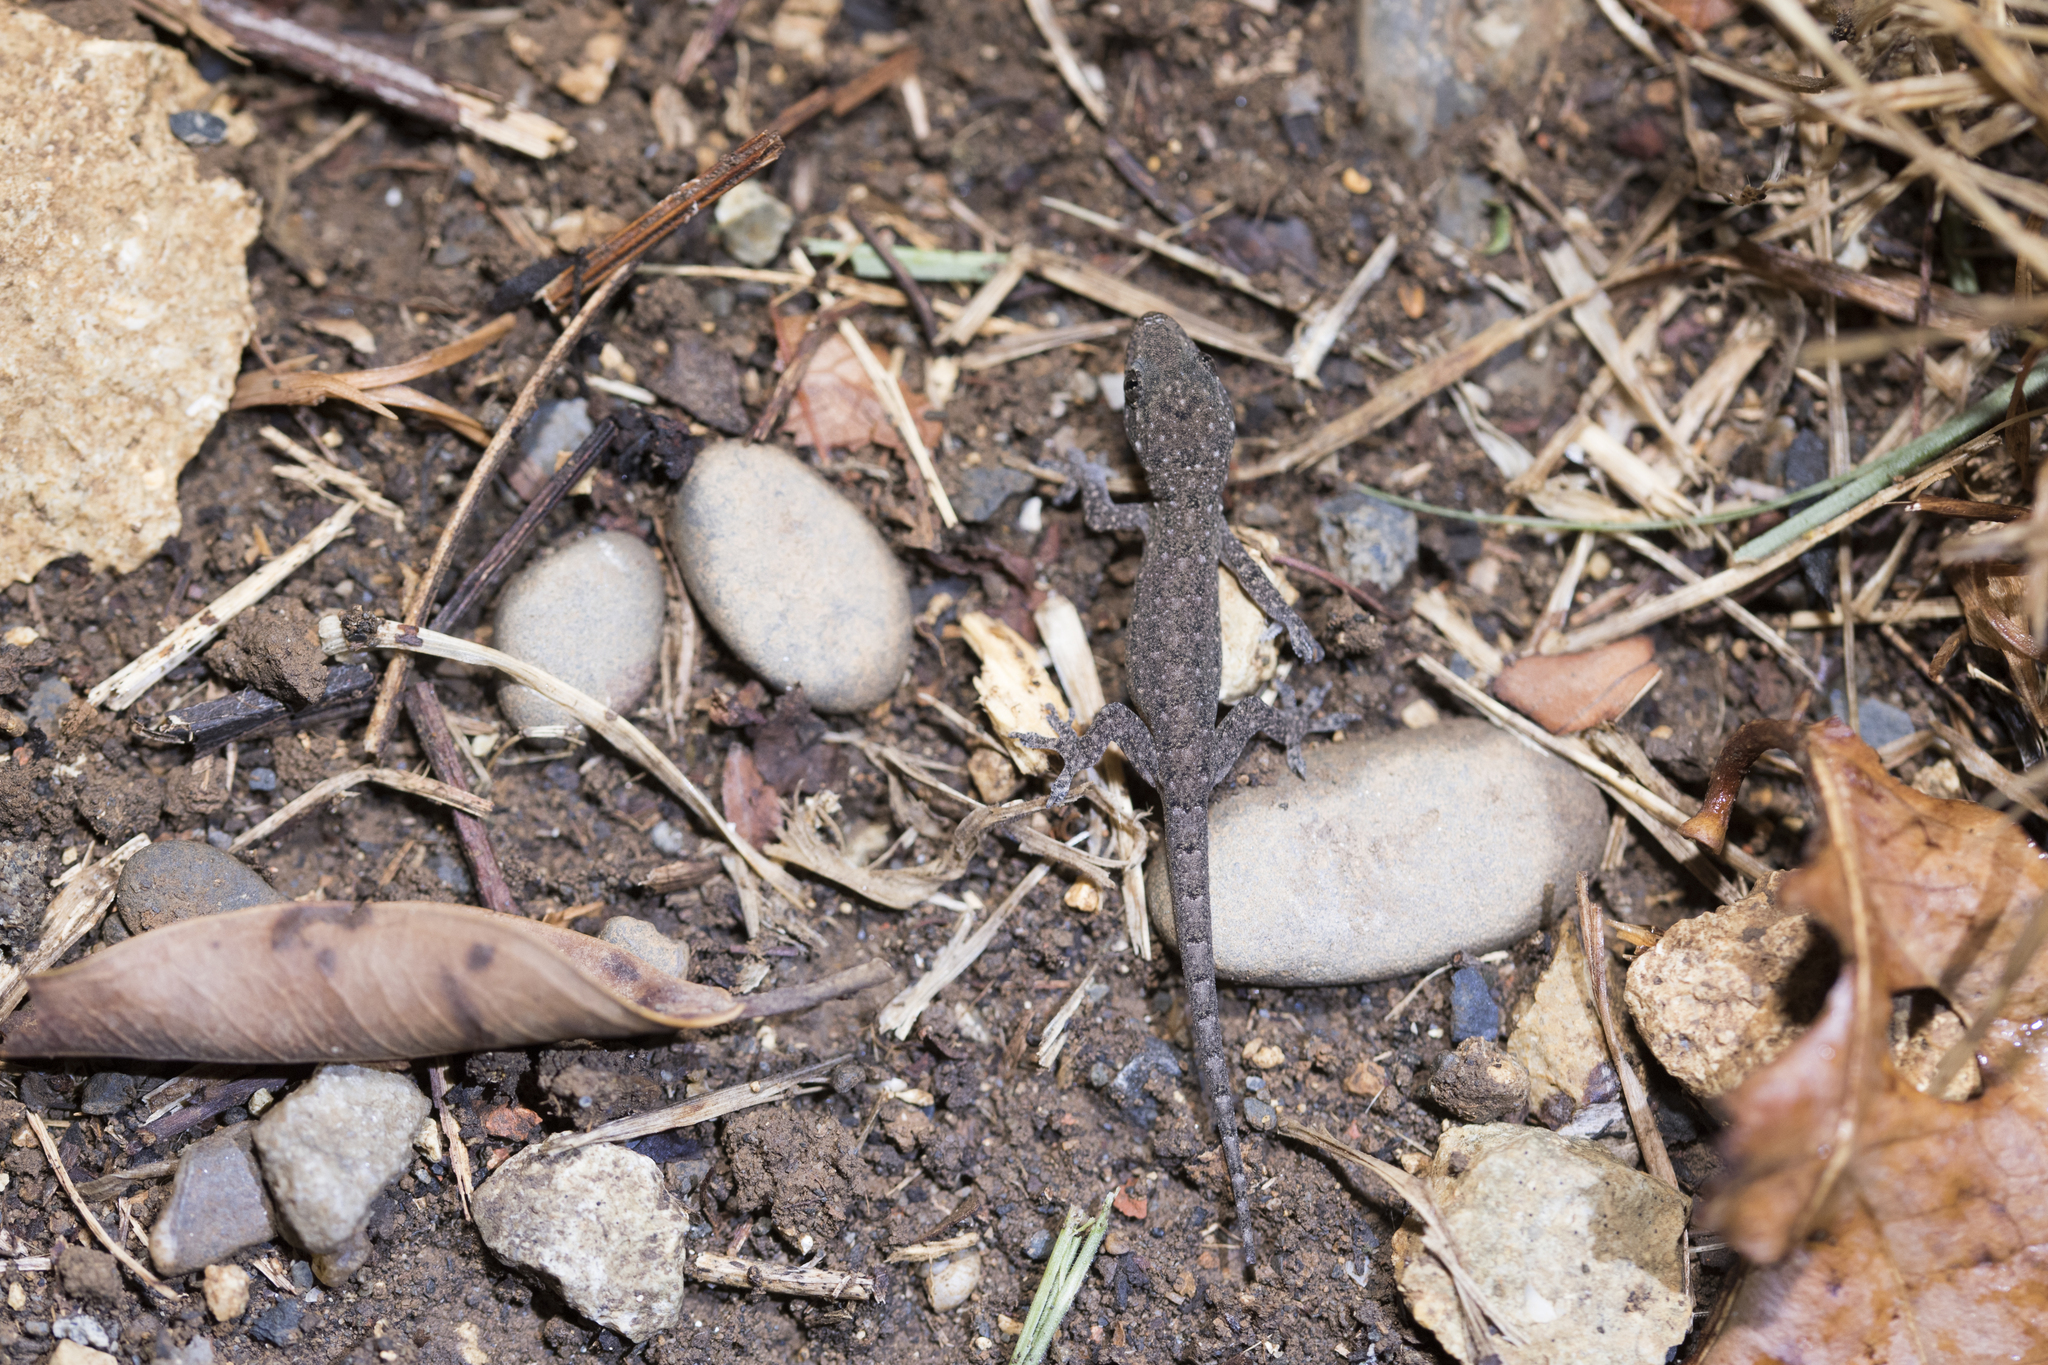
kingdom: Animalia
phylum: Chordata
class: Squamata
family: Gekkonidae
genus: Hemidactylus
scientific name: Hemidactylus frenatus
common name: Common house gecko
